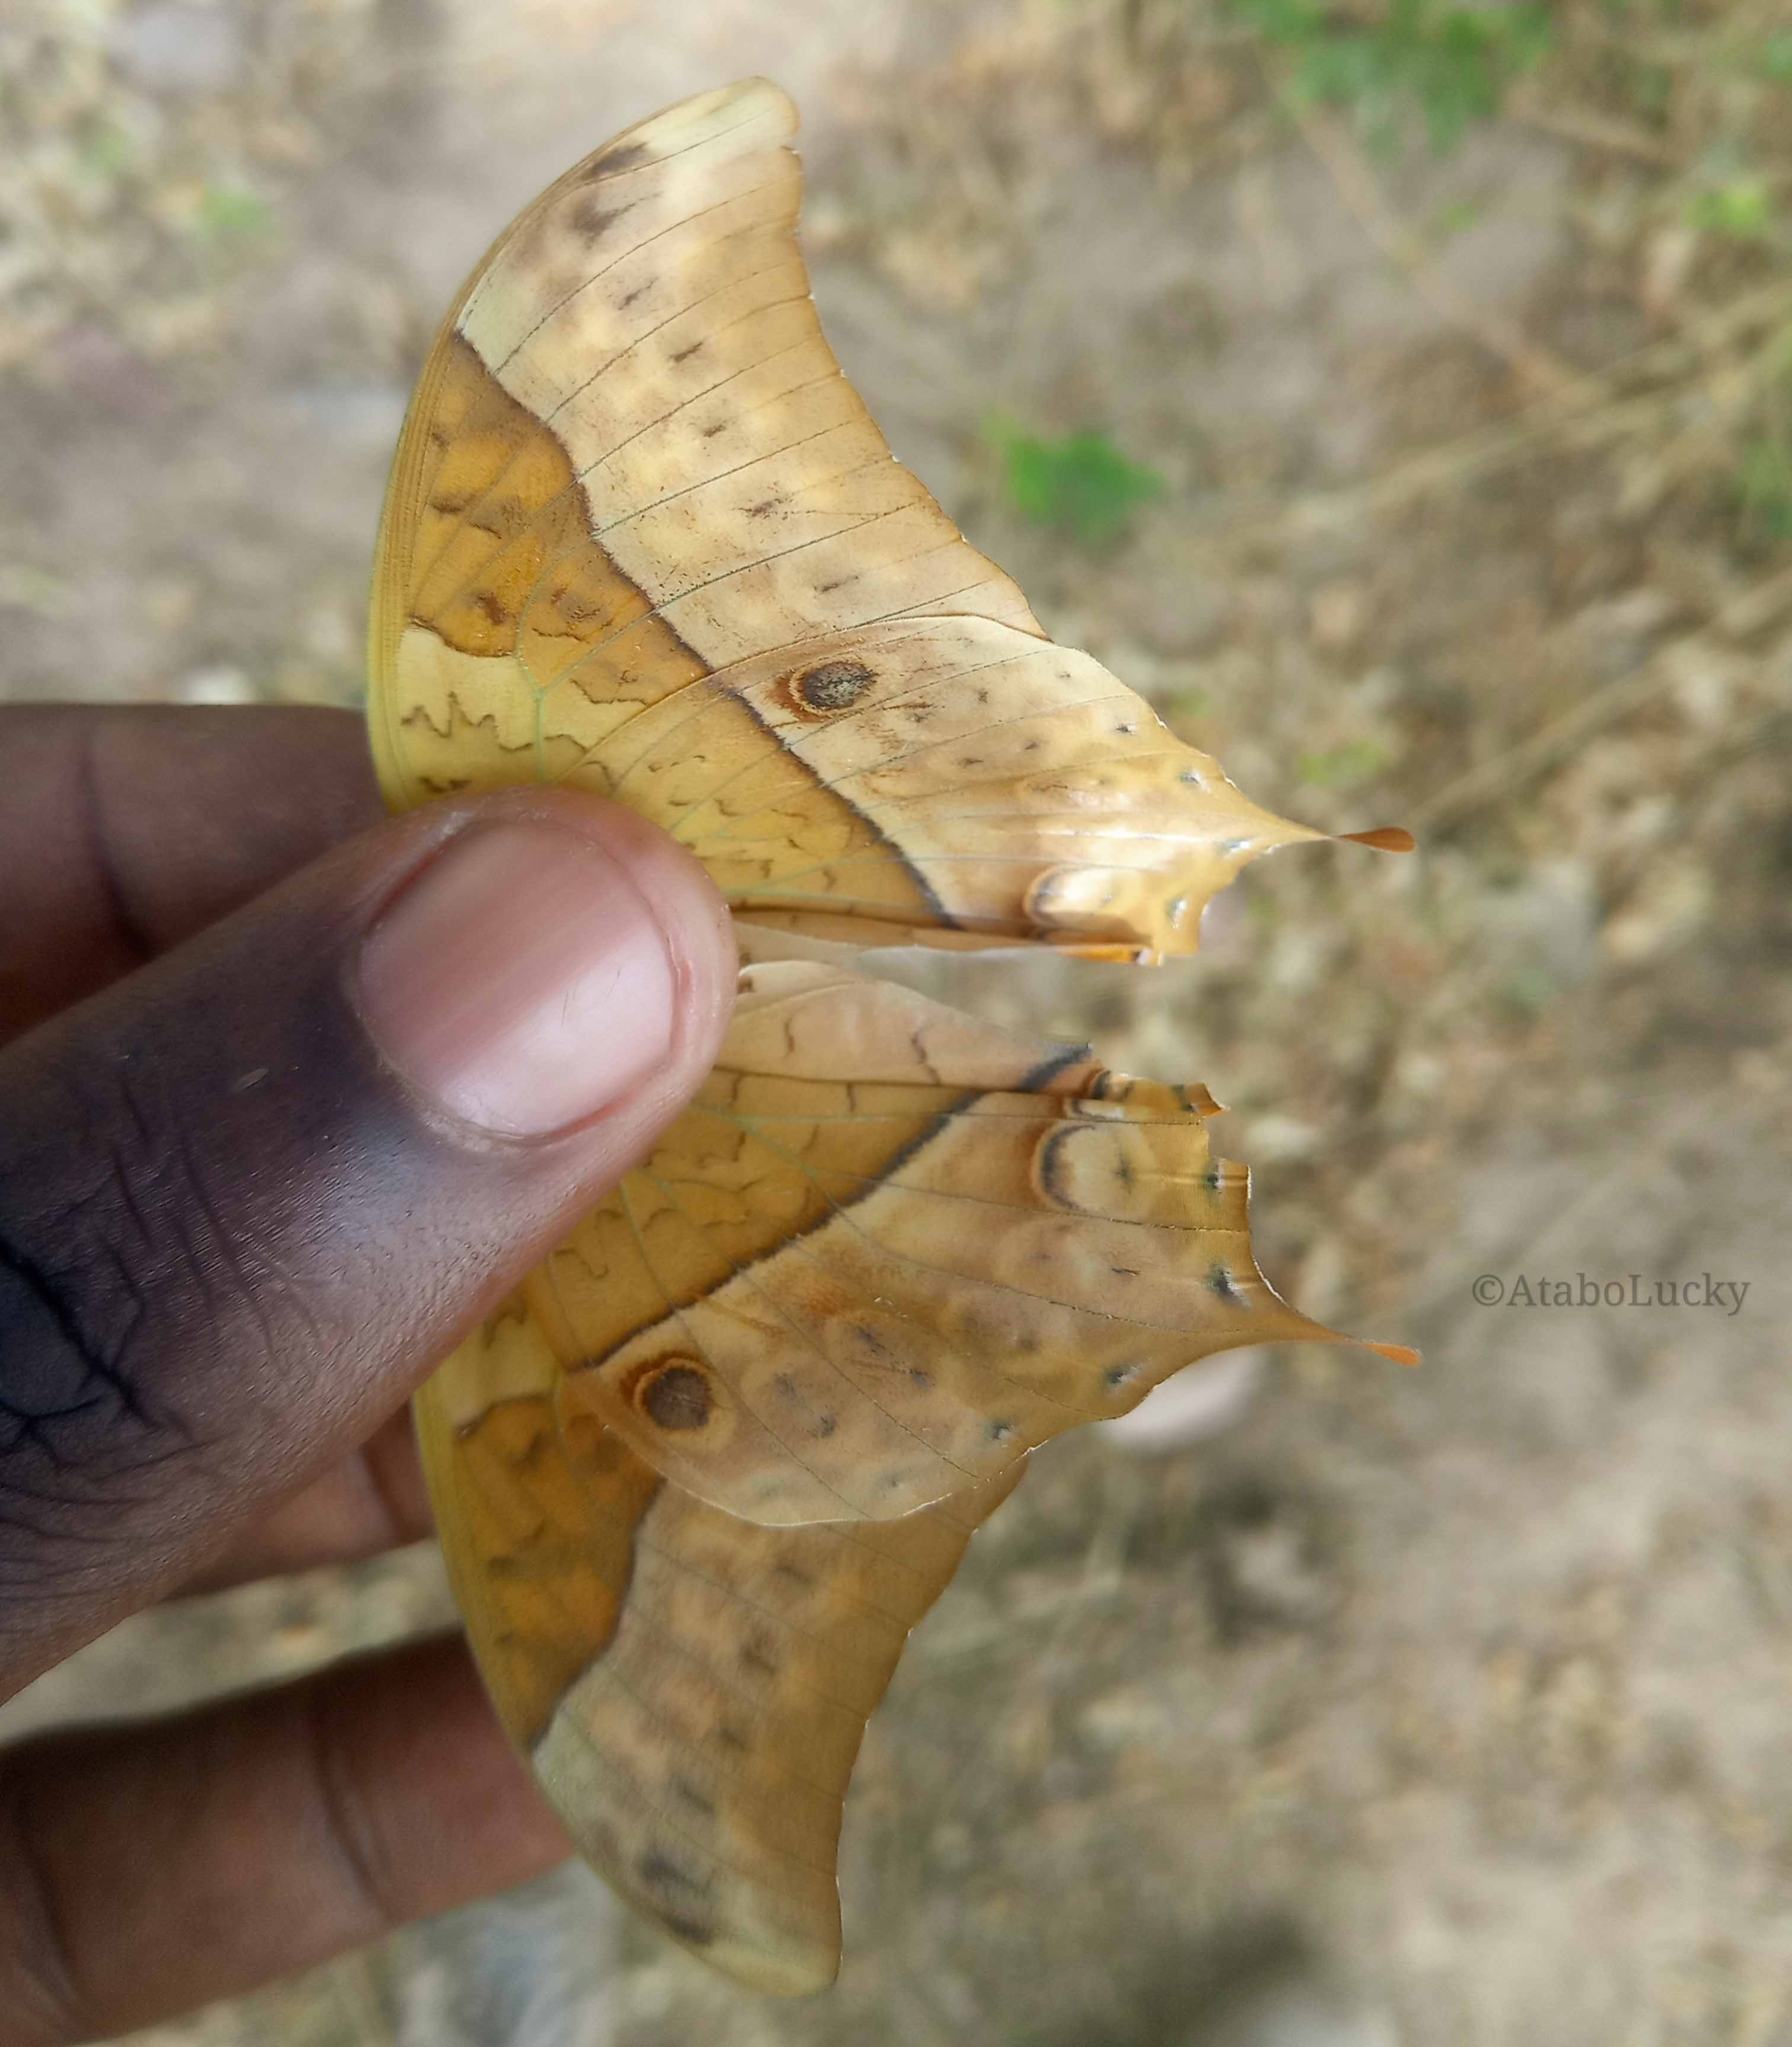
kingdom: Animalia
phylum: Arthropoda
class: Insecta
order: Lepidoptera
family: Nymphalidae
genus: Charaxes
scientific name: Charaxes varanes
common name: Common pearl charaxes
